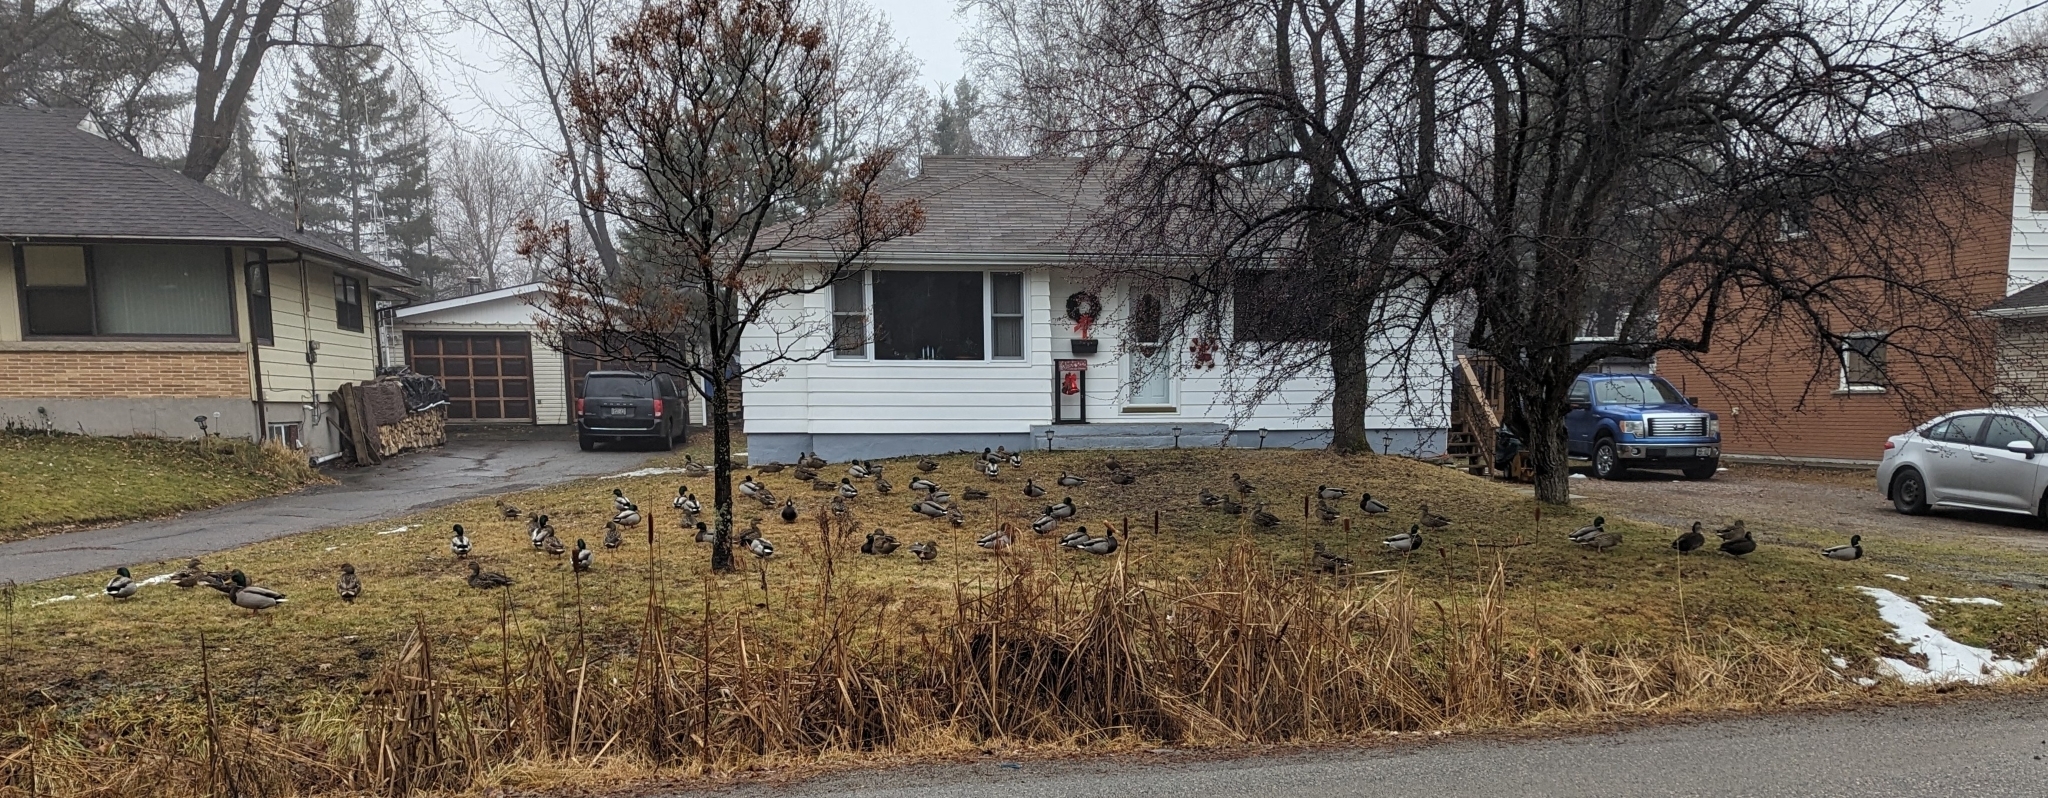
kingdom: Animalia
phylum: Chordata
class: Aves
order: Anseriformes
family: Anatidae
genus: Anas
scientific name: Anas platyrhynchos
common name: Mallard
